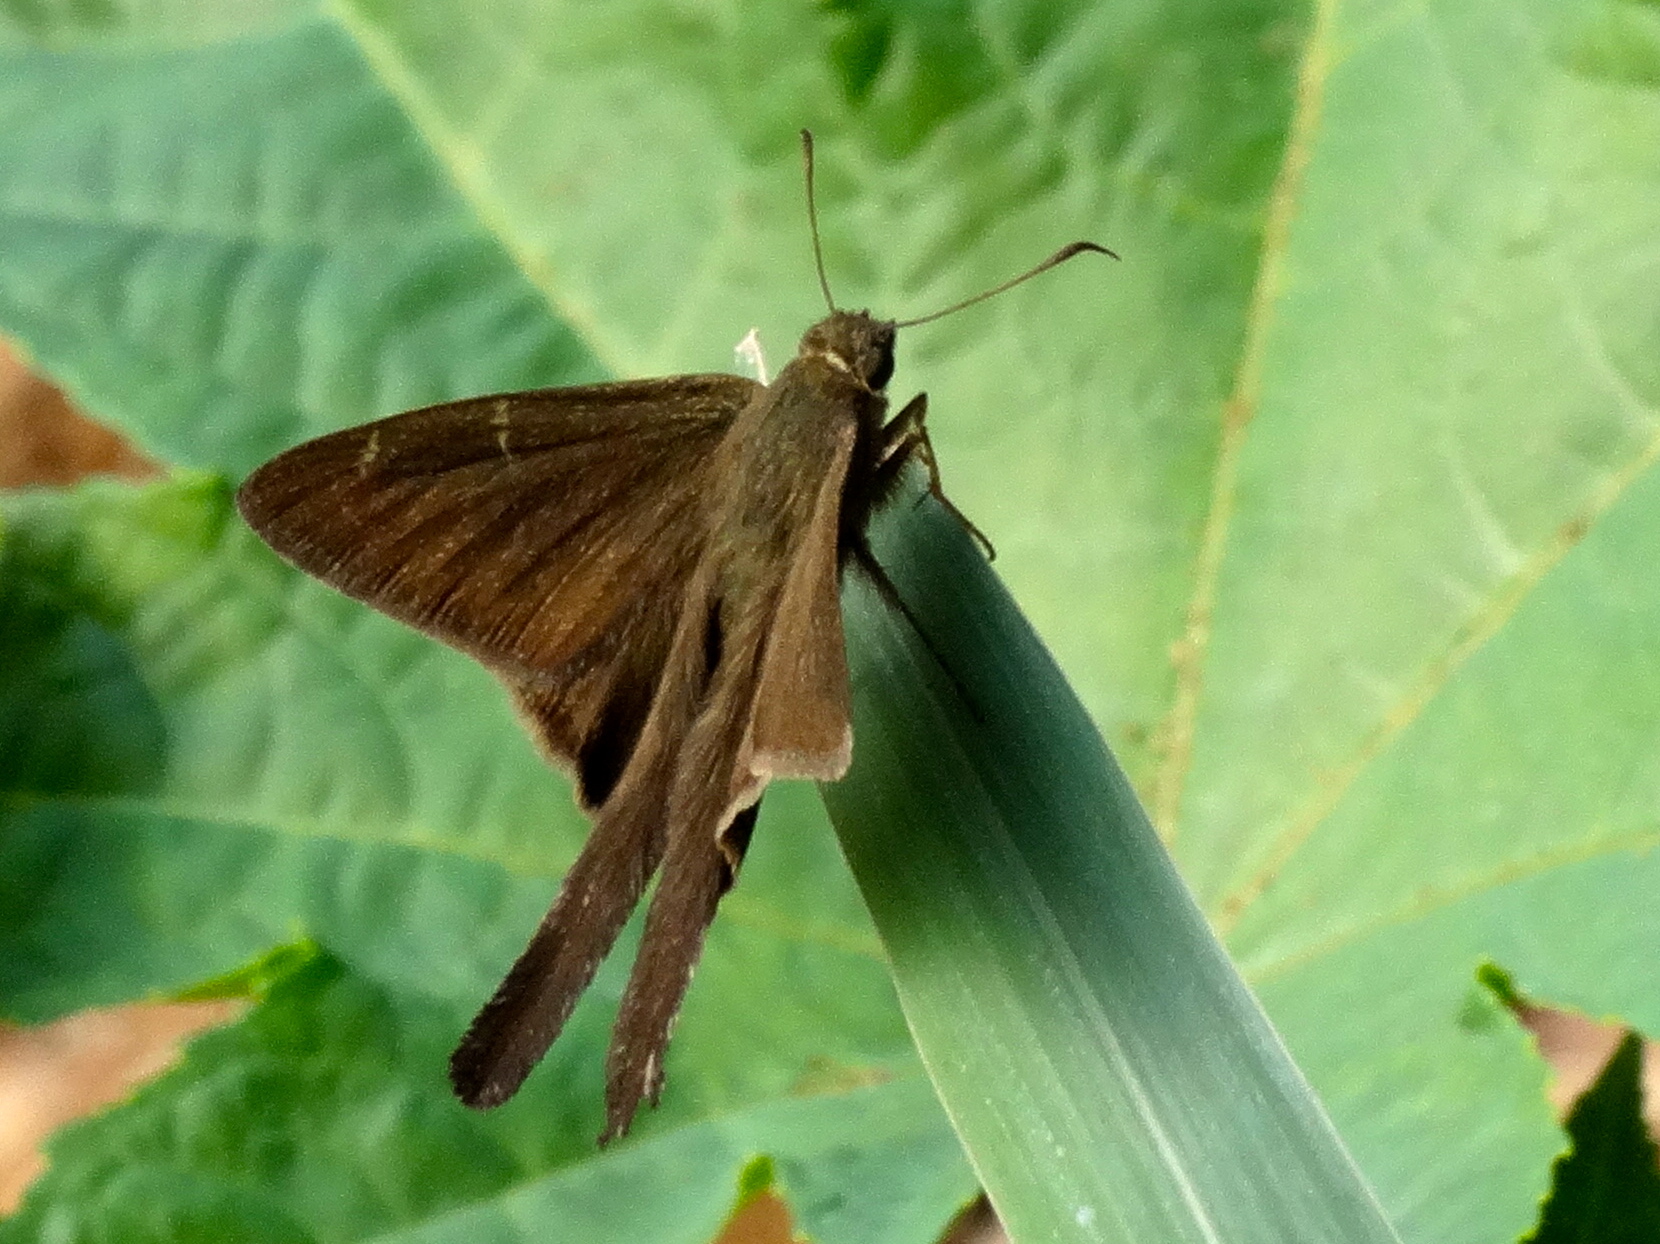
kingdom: Animalia
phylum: Arthropoda
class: Insecta
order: Lepidoptera
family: Hesperiidae
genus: Urbanus
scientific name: Urbanus simplicius
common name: Plain longtail
